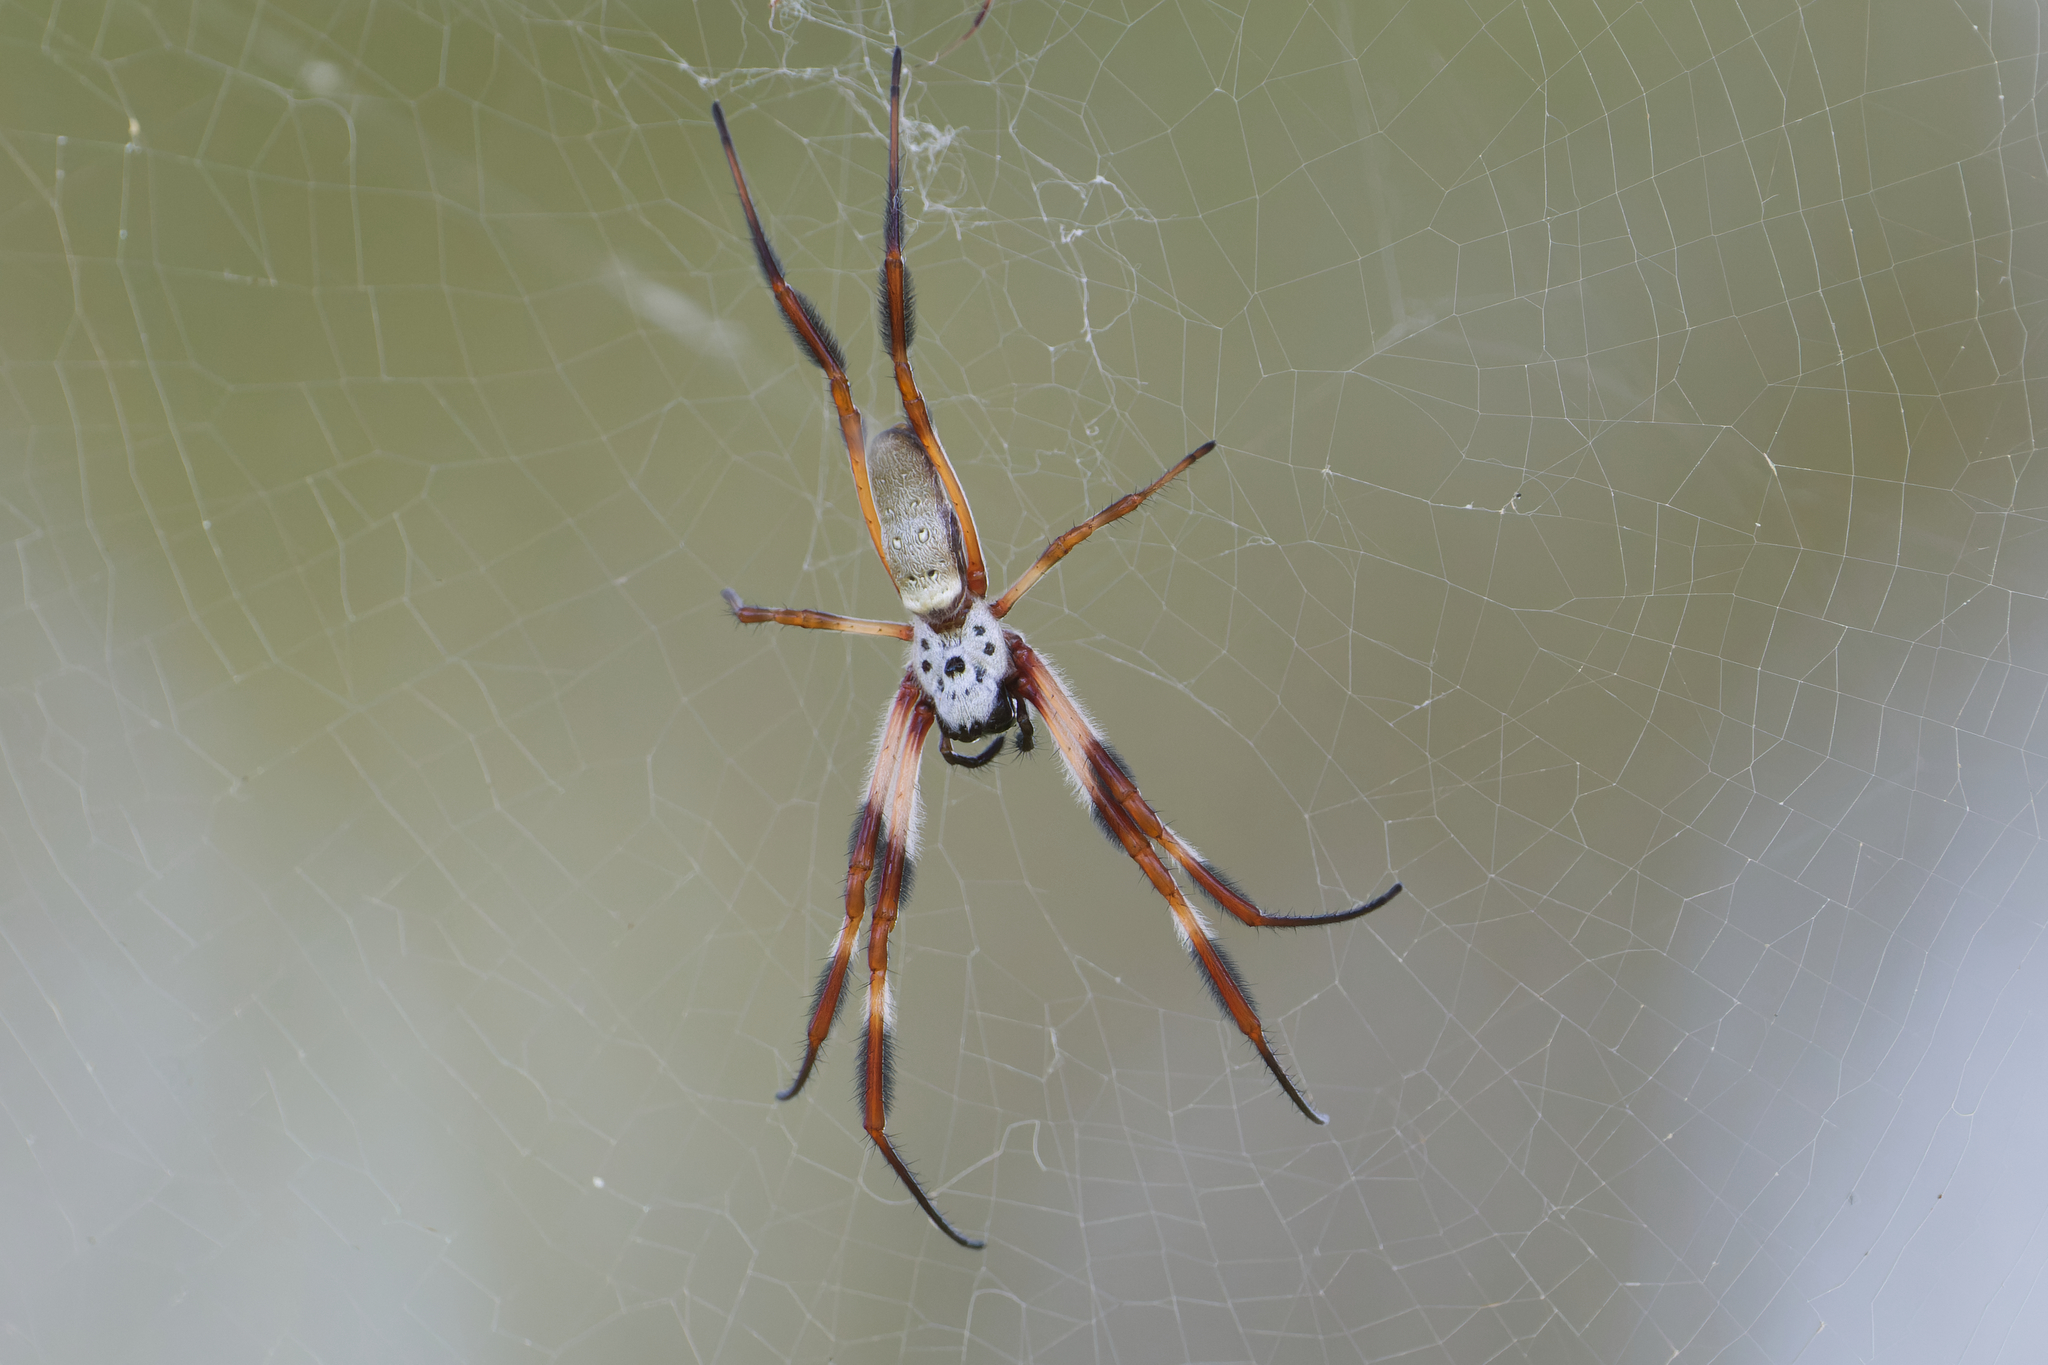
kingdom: Animalia
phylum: Arthropoda
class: Arachnida
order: Araneae
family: Araneidae
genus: Trichonephila
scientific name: Trichonephila edulis
